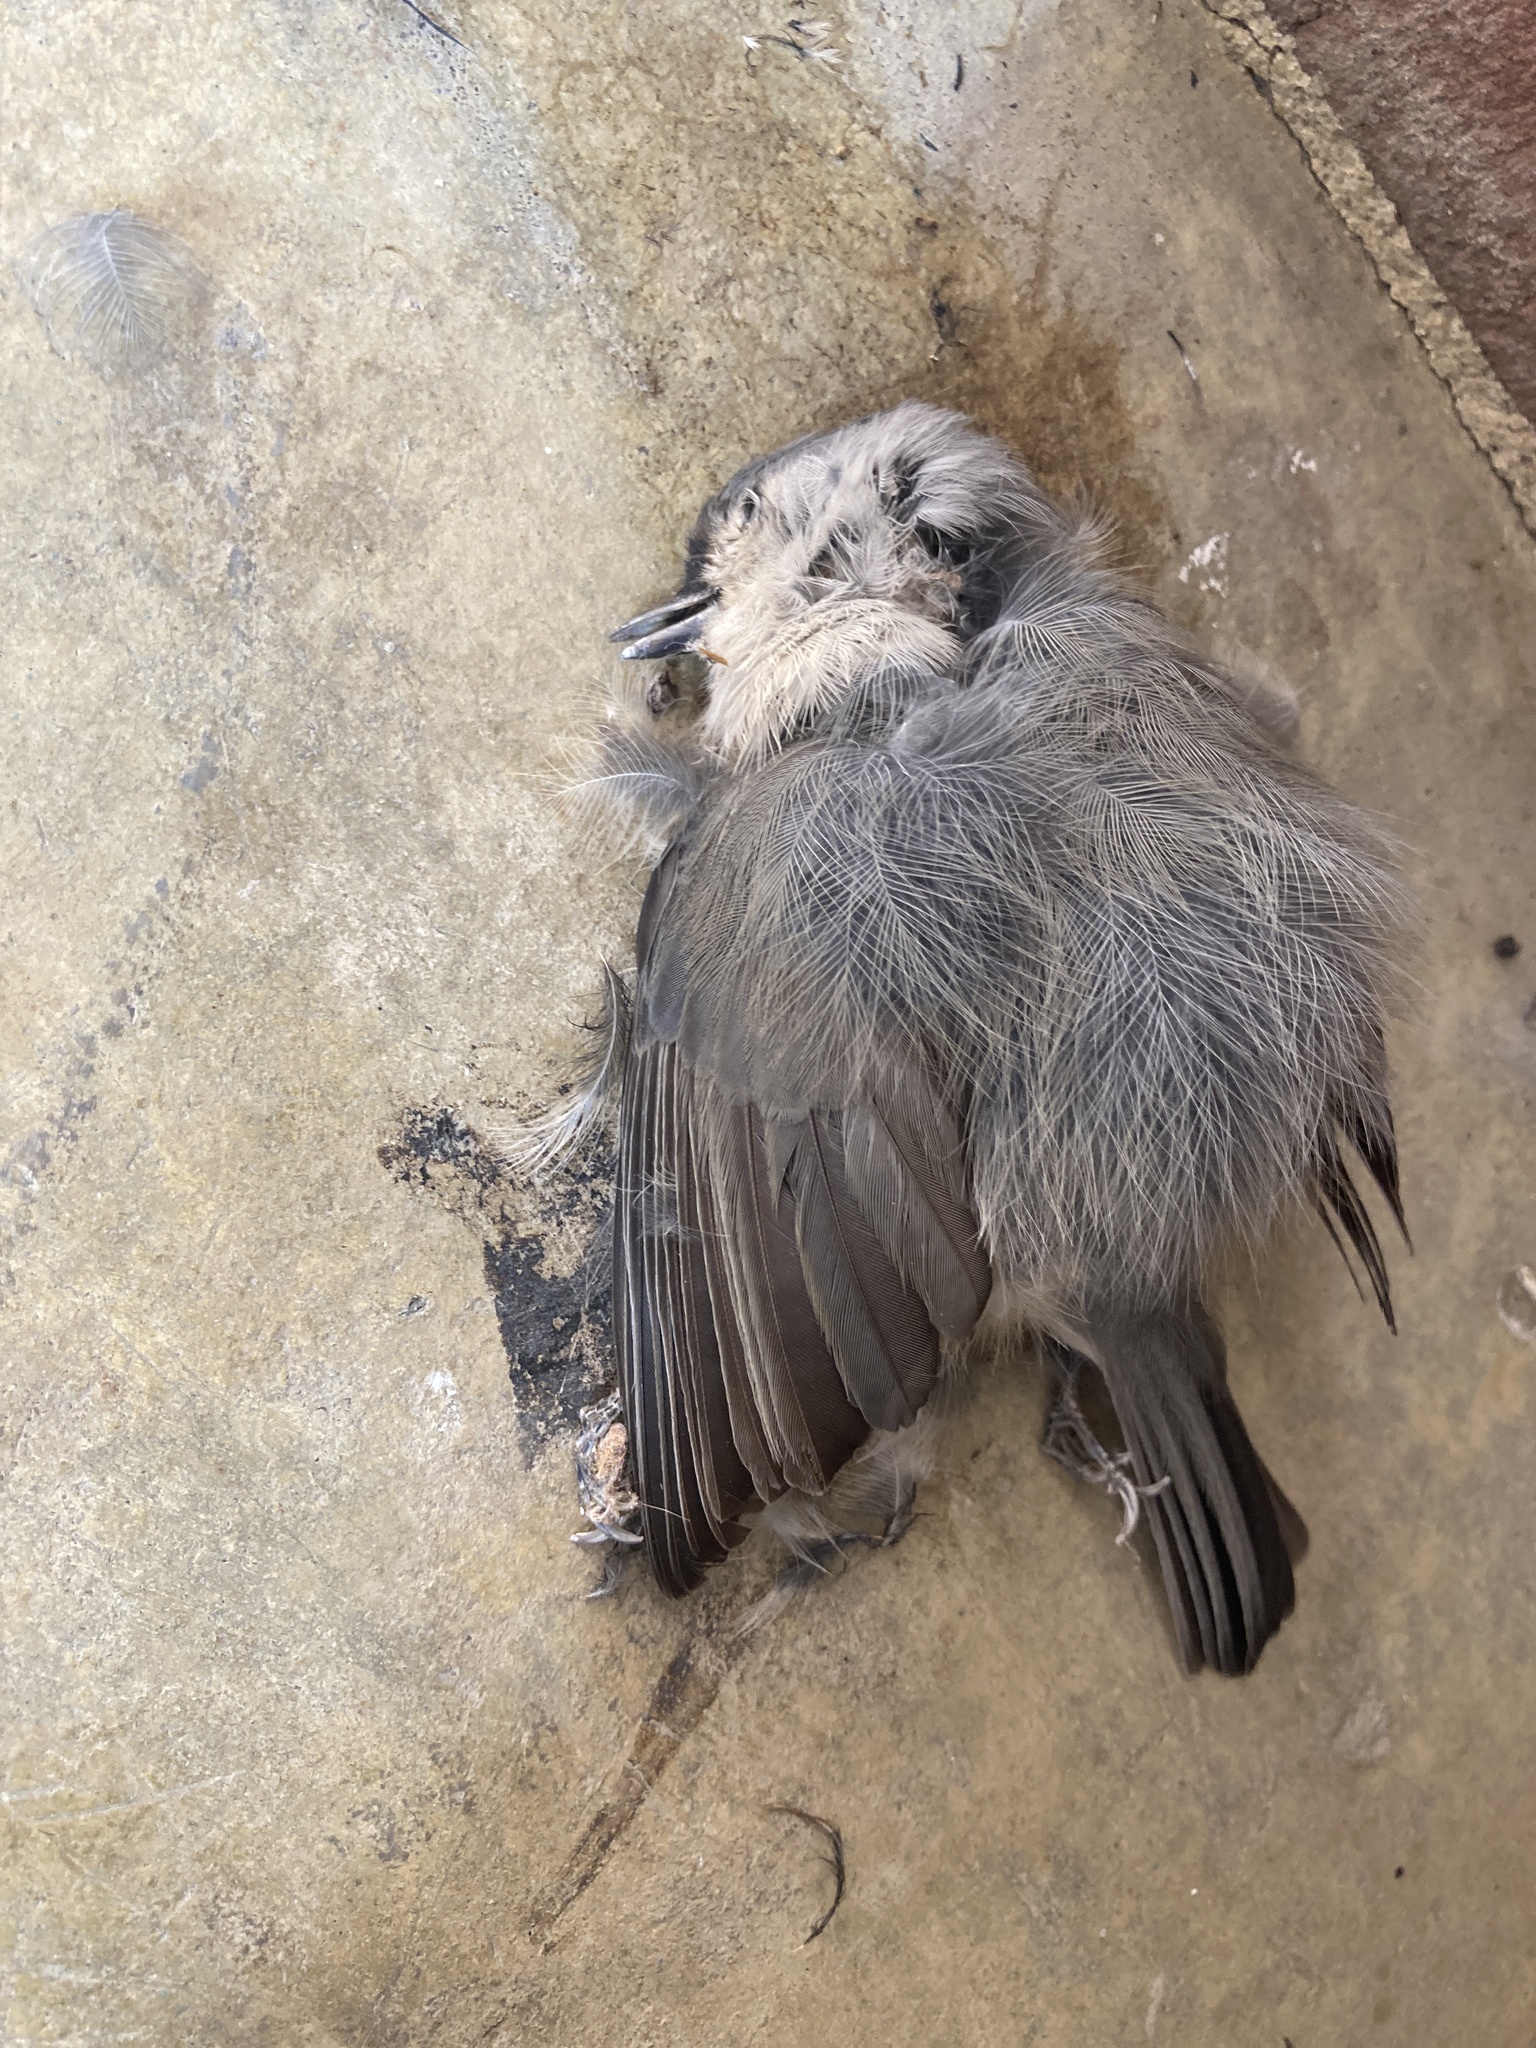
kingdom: Animalia
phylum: Chordata
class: Aves
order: Passeriformes
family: Paridae
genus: Baeolophus
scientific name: Baeolophus bicolor
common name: Tufted titmouse
